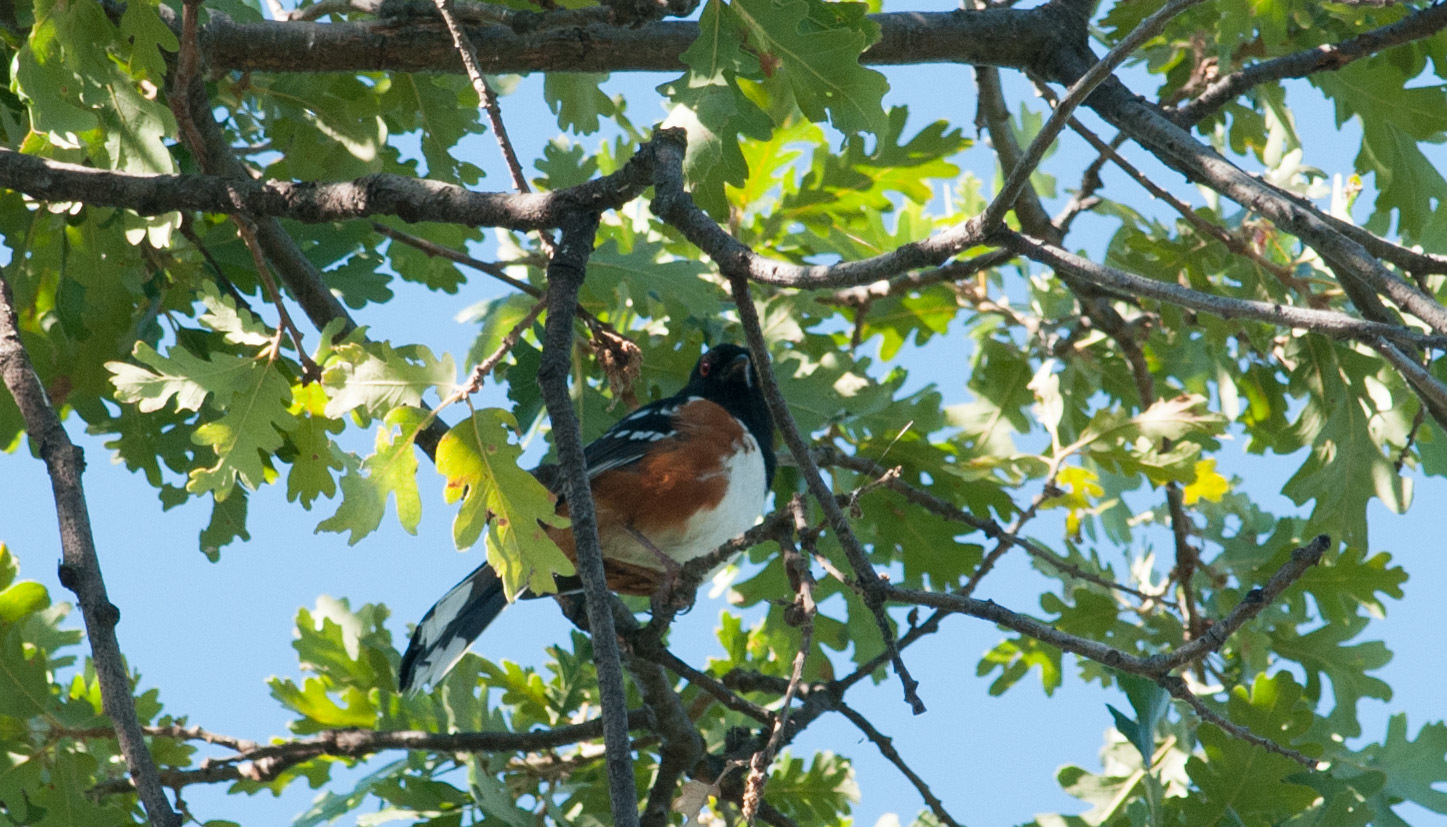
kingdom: Animalia
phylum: Chordata
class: Aves
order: Passeriformes
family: Passerellidae
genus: Pipilo
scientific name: Pipilo maculatus
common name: Spotted towhee
